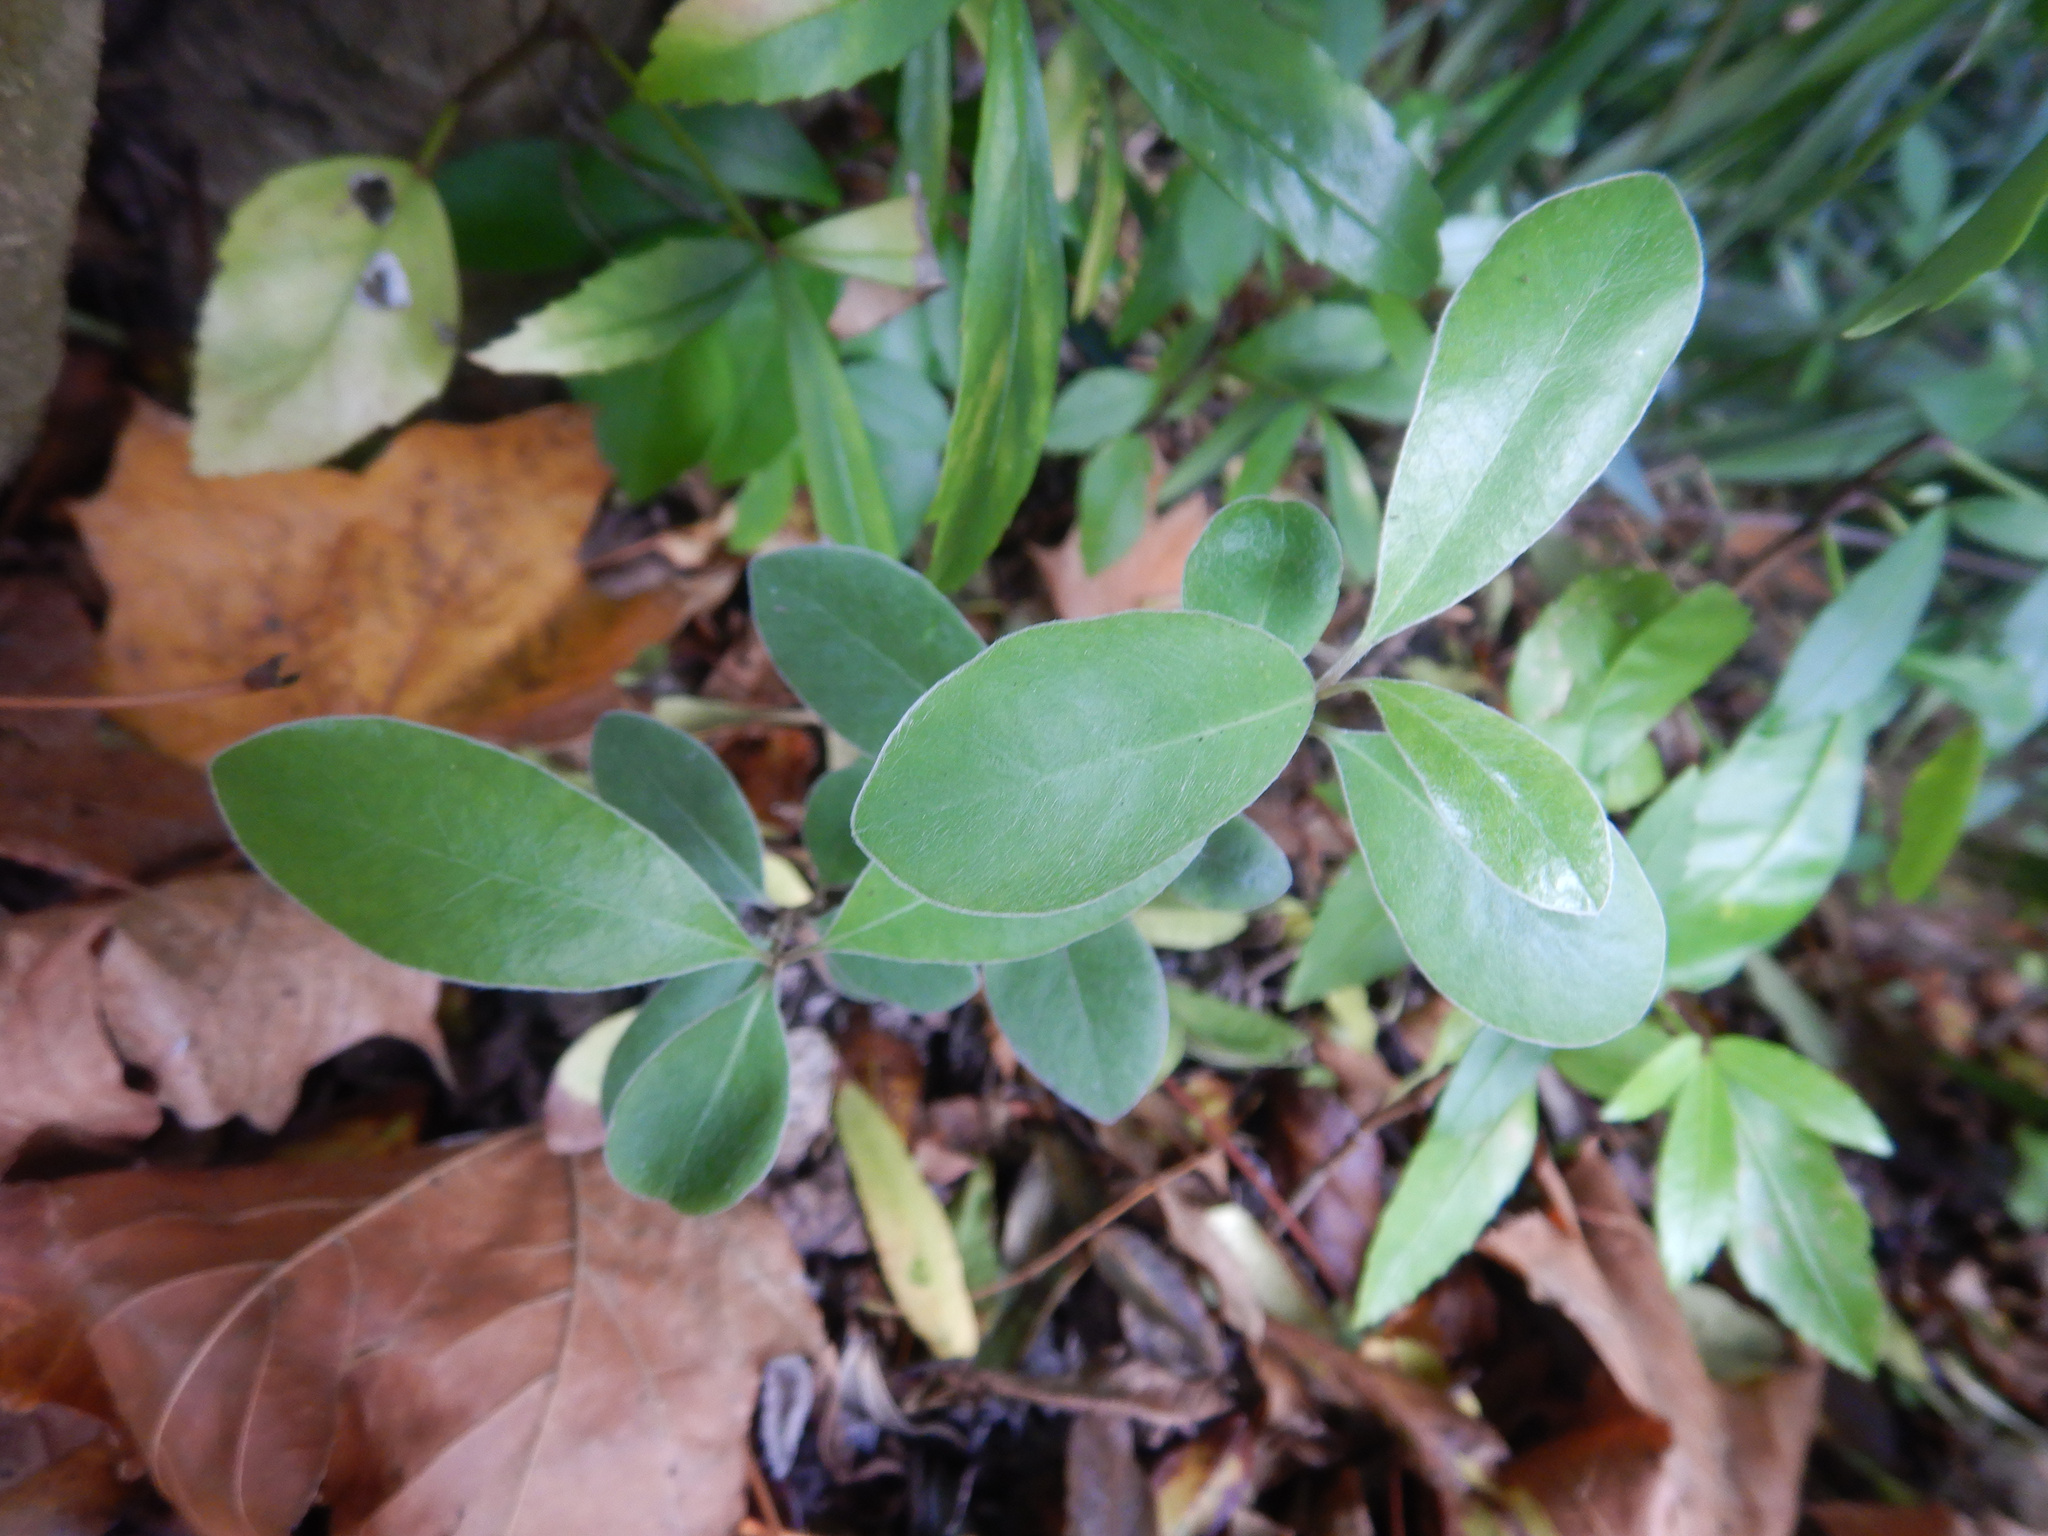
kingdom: Plantae
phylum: Tracheophyta
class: Magnoliopsida
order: Apiales
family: Pittosporaceae
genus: Pittosporum
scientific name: Pittosporum crassifolium
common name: Karo
